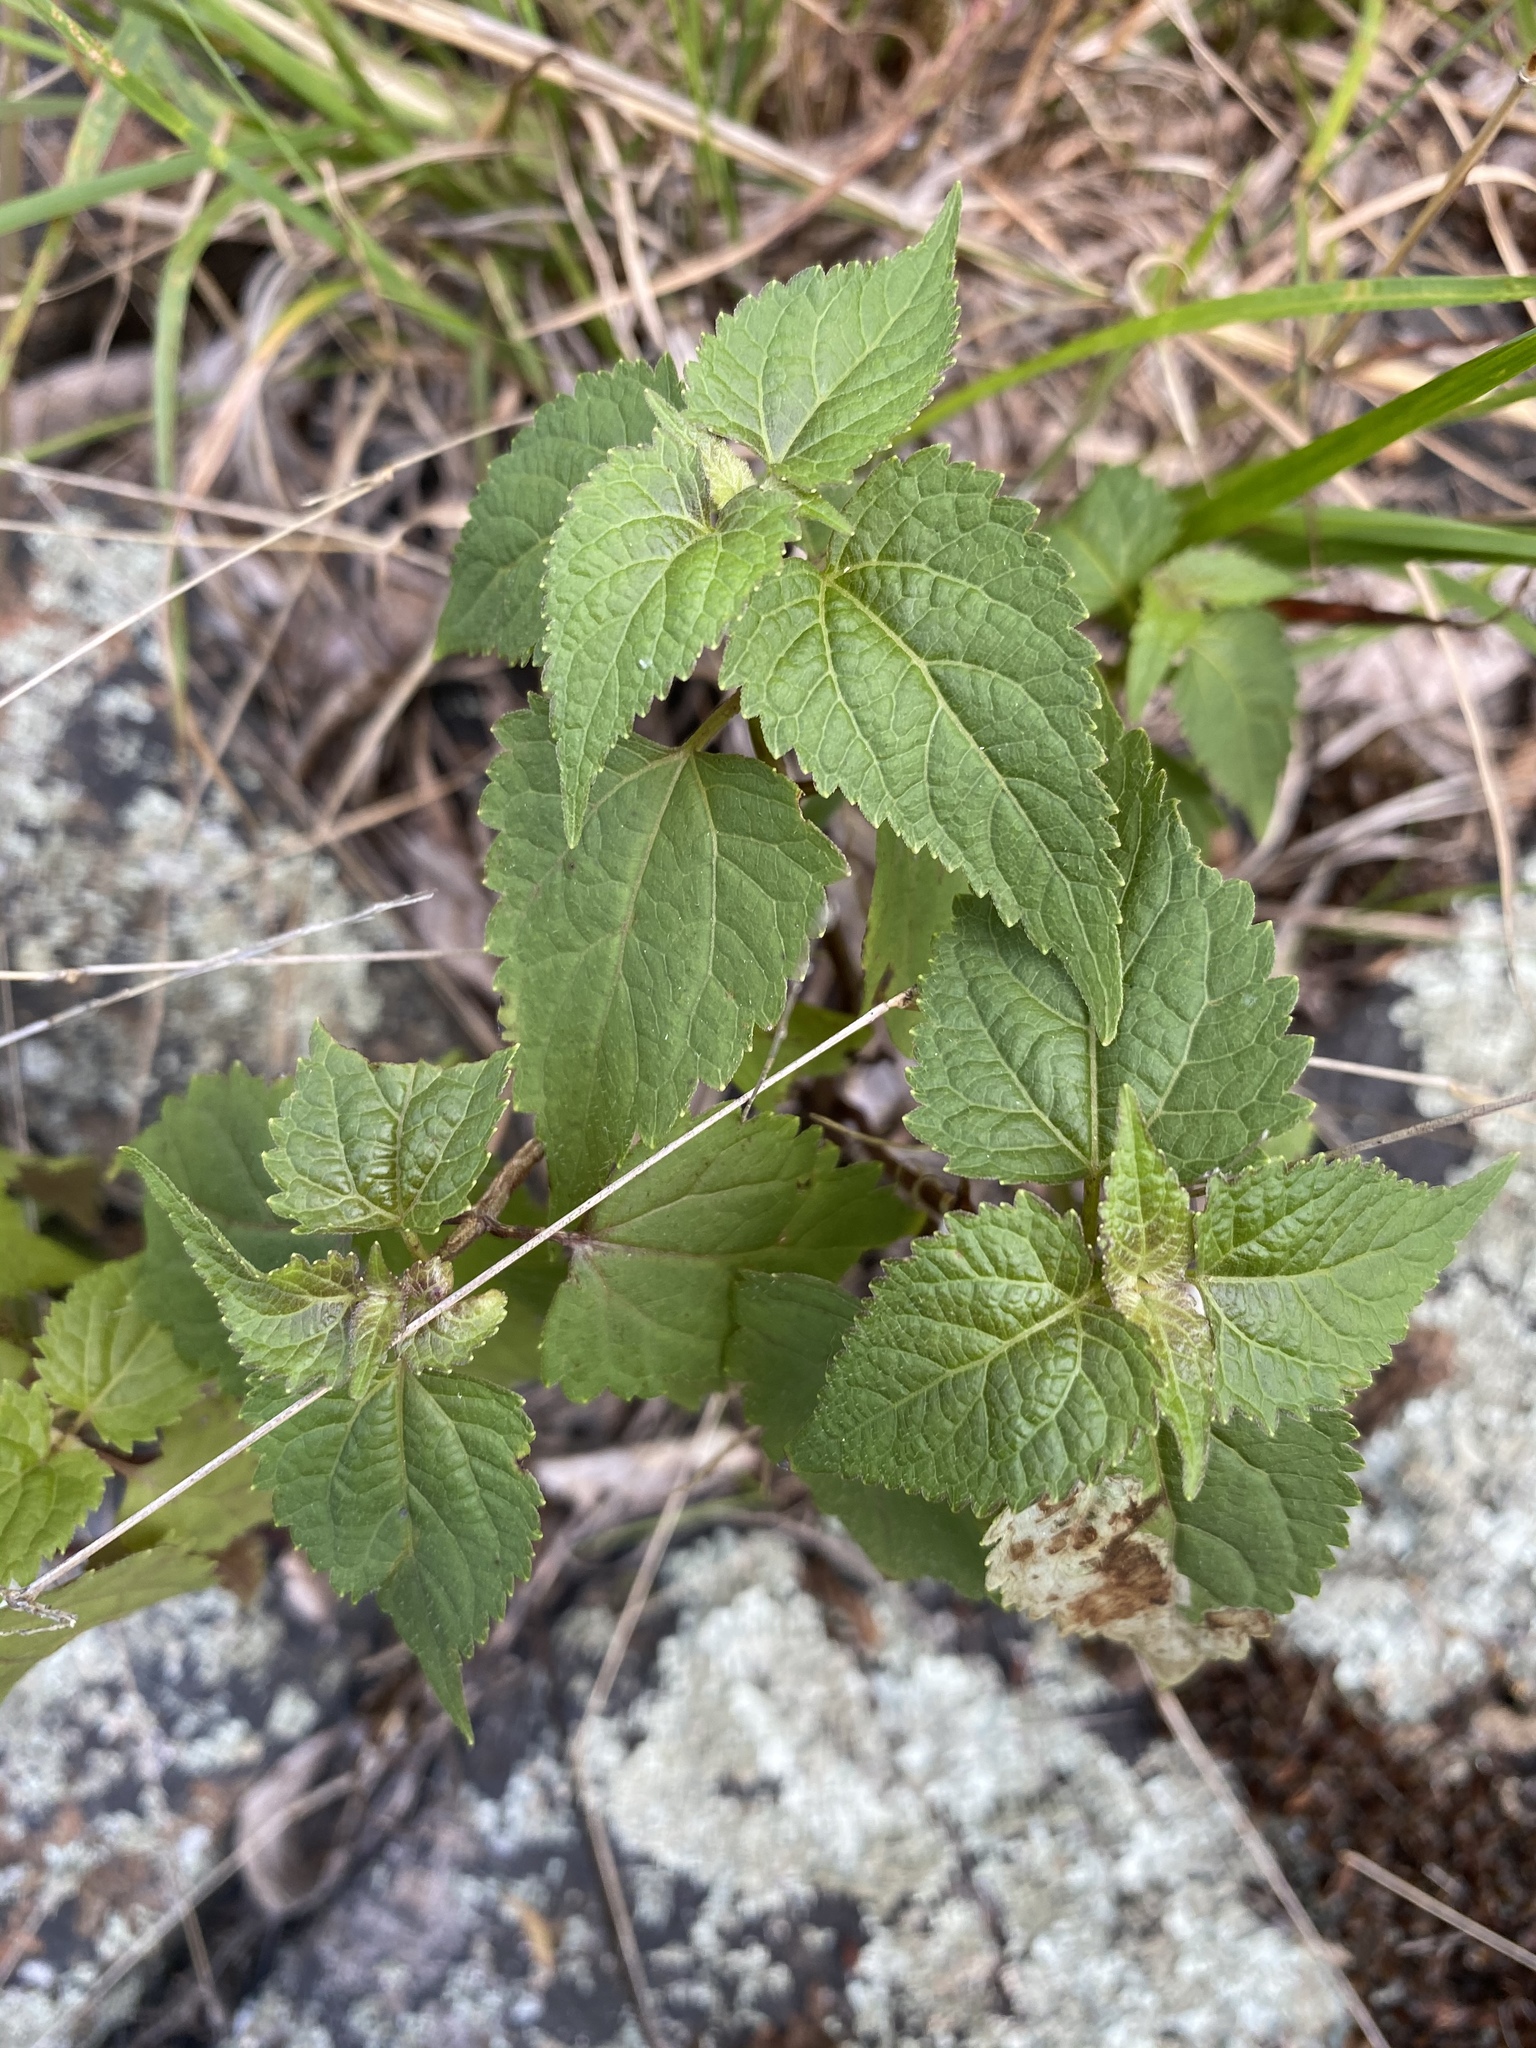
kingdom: Plantae
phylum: Tracheophyta
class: Magnoliopsida
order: Asterales
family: Asteraceae
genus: Ageratina
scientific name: Ageratina altissima
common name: White snakeroot
